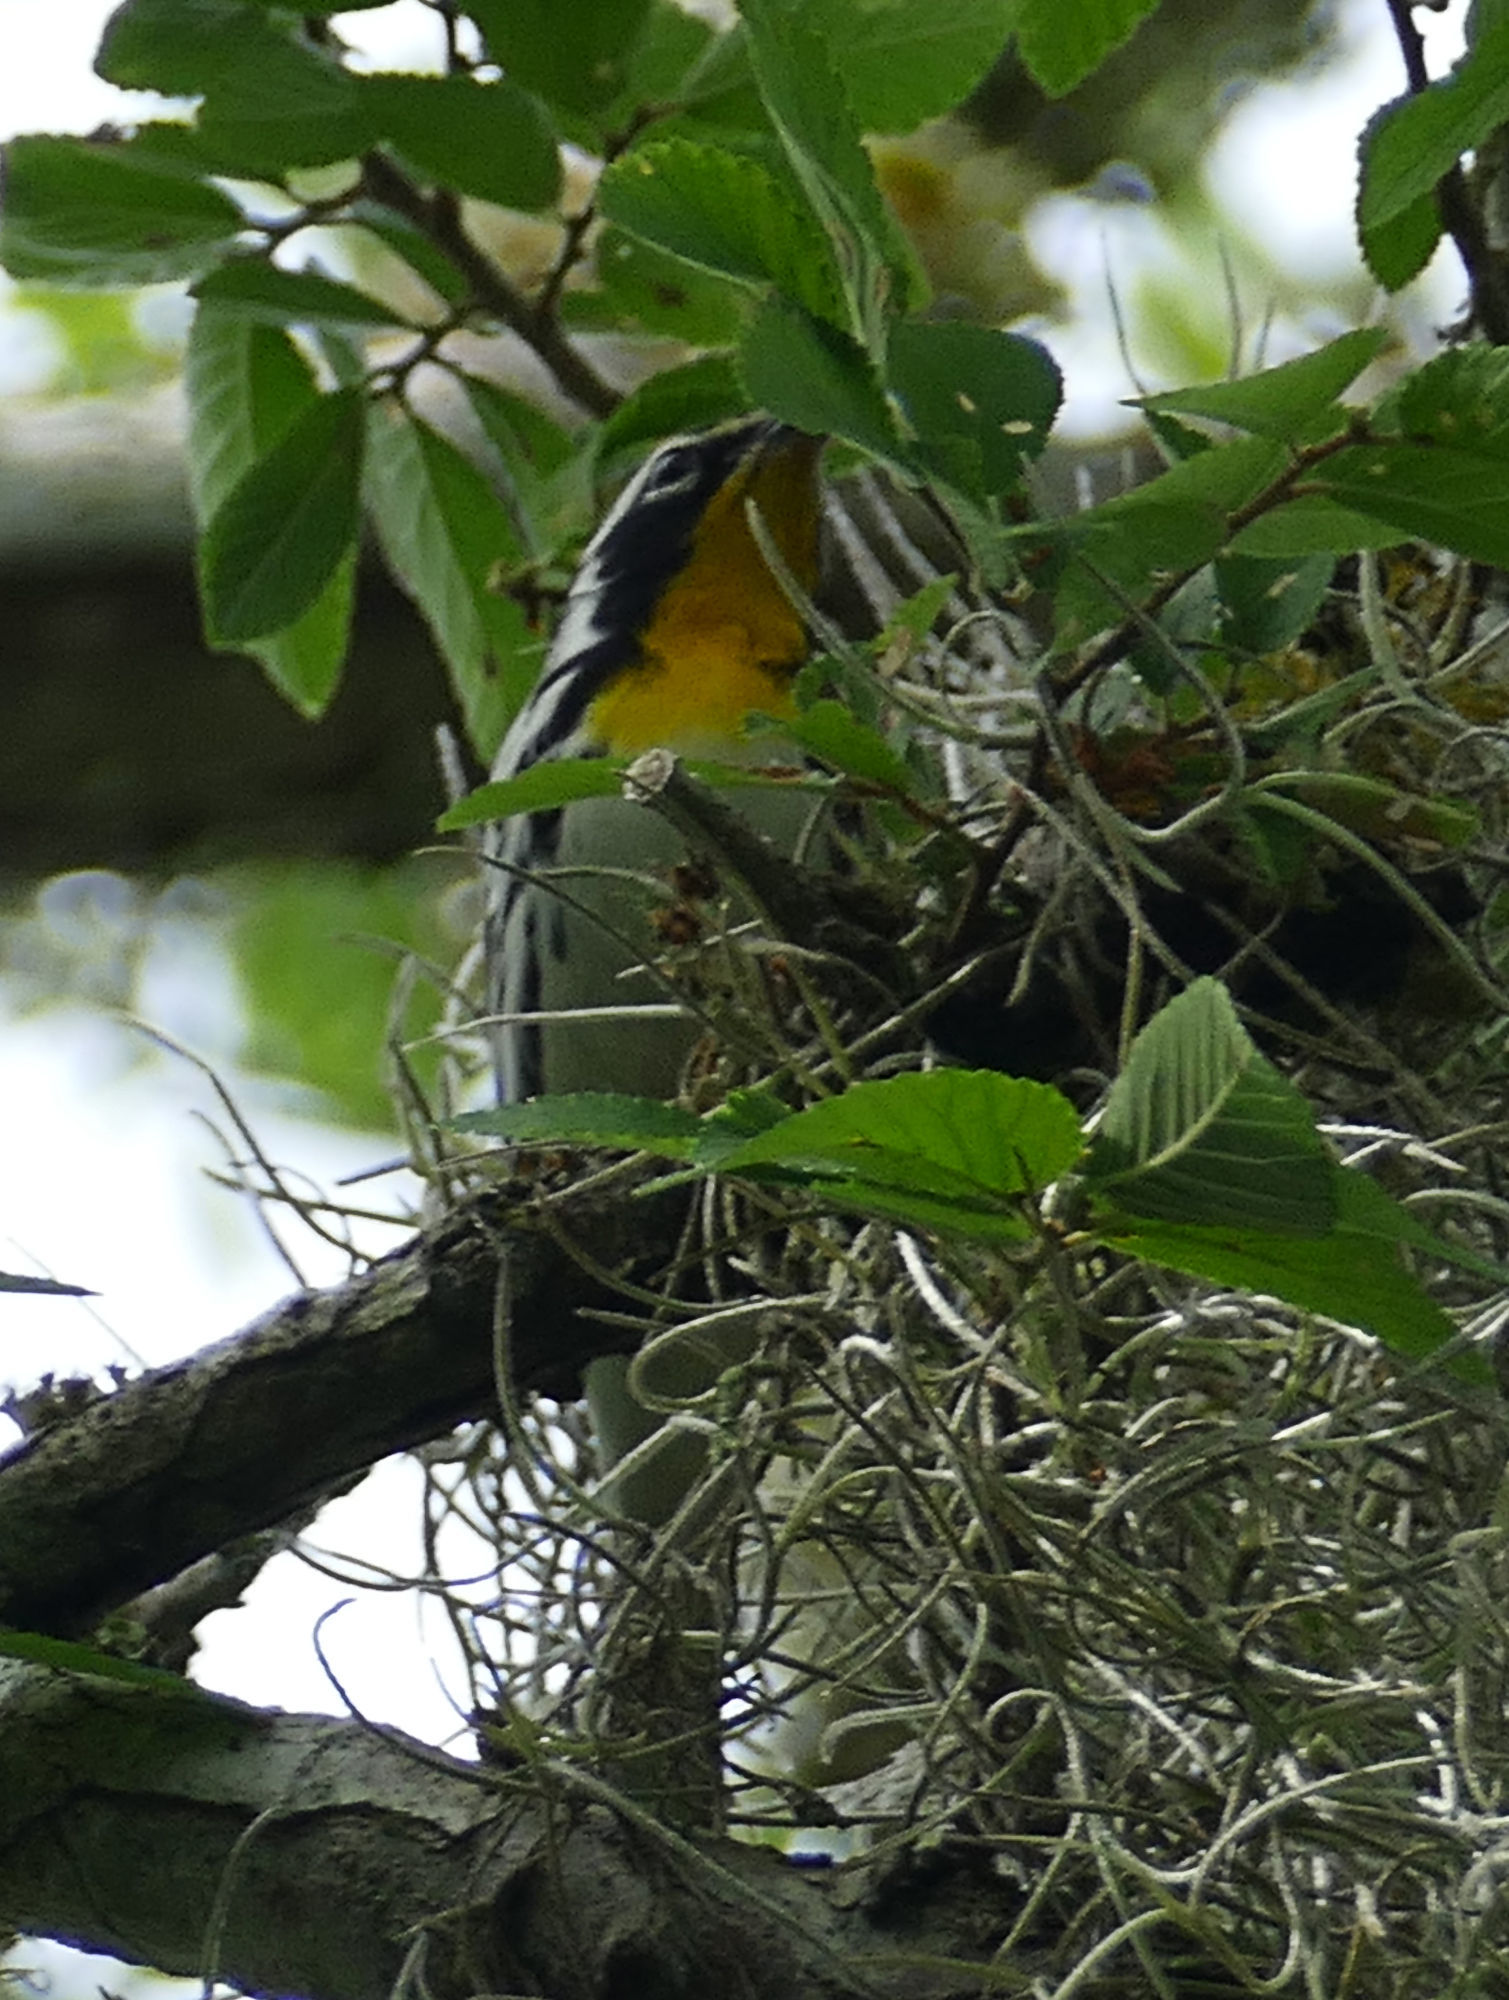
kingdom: Animalia
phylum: Chordata
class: Aves
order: Passeriformes
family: Parulidae
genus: Setophaga
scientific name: Setophaga dominica
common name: Yellow-throated warbler
